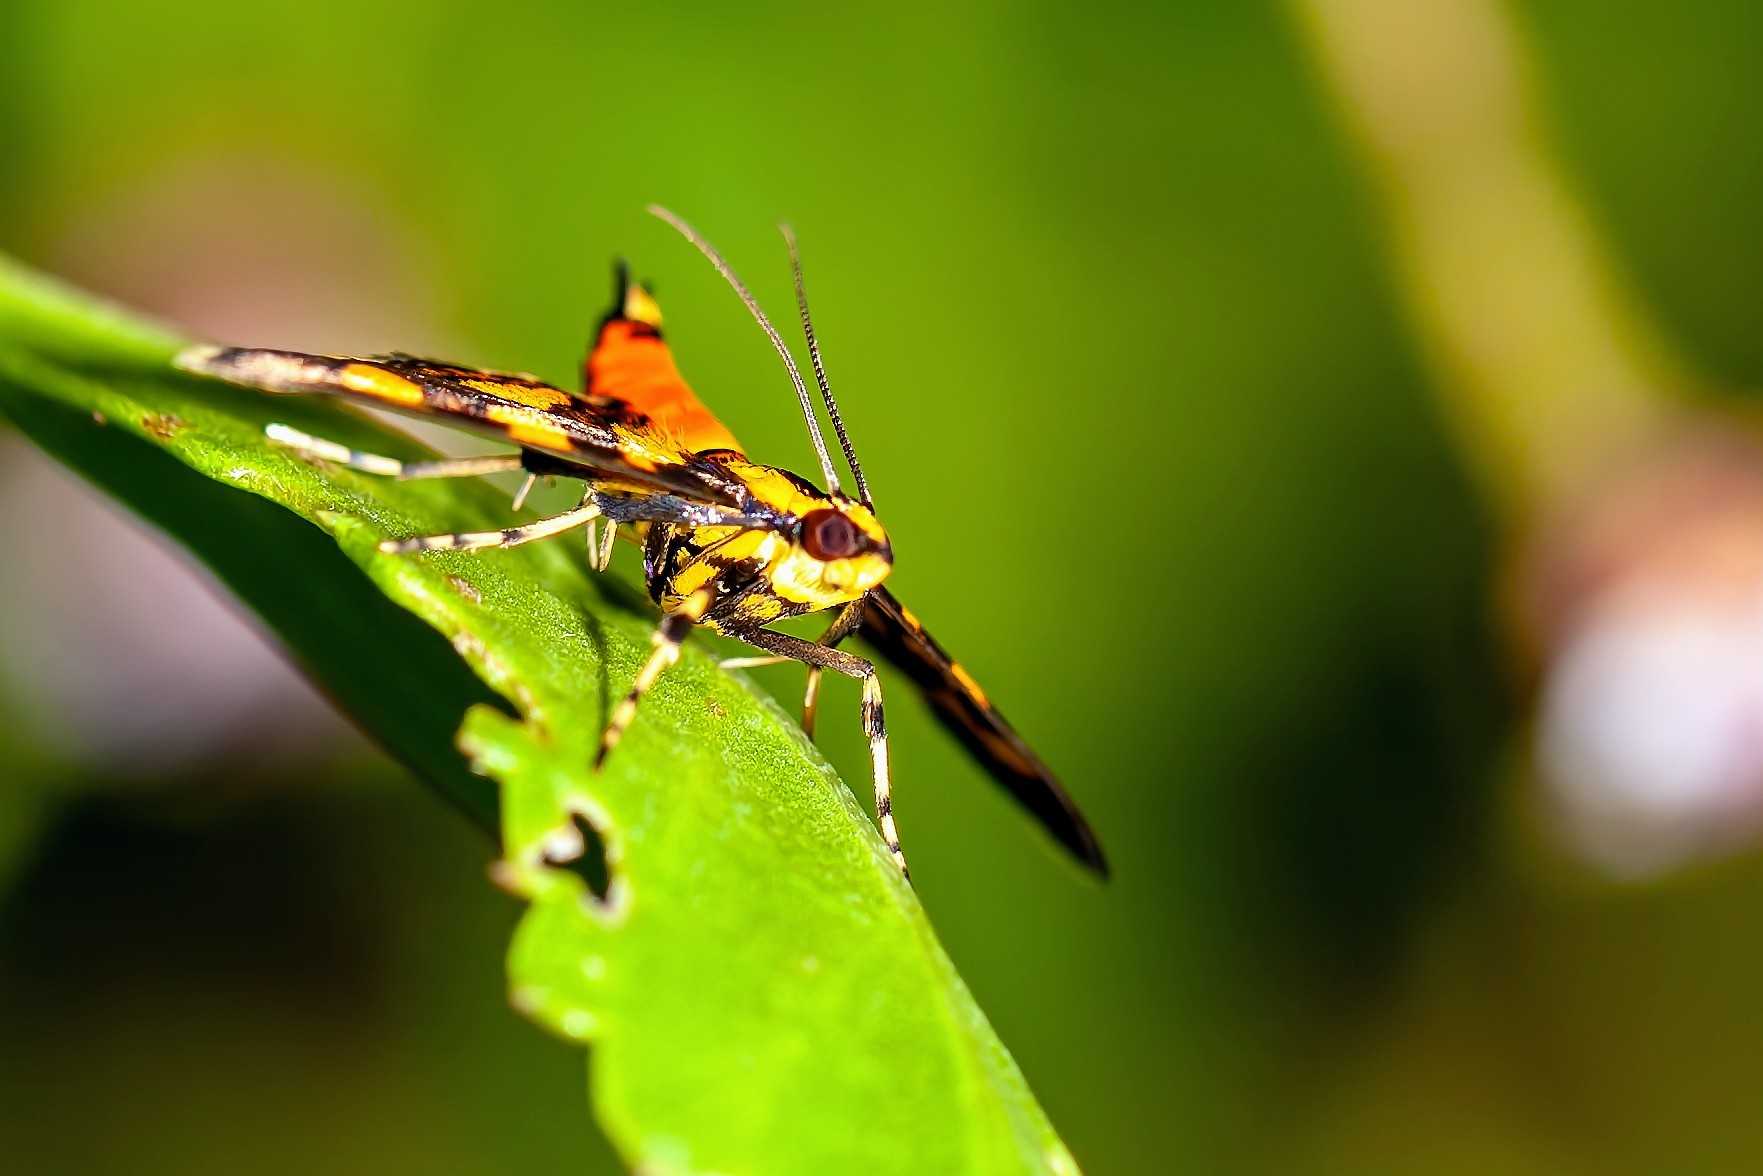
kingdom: Animalia
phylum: Arthropoda
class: Insecta
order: Lepidoptera
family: Crambidae
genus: Syngamia
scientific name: Syngamia florella
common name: Orange-spotted flower moth
